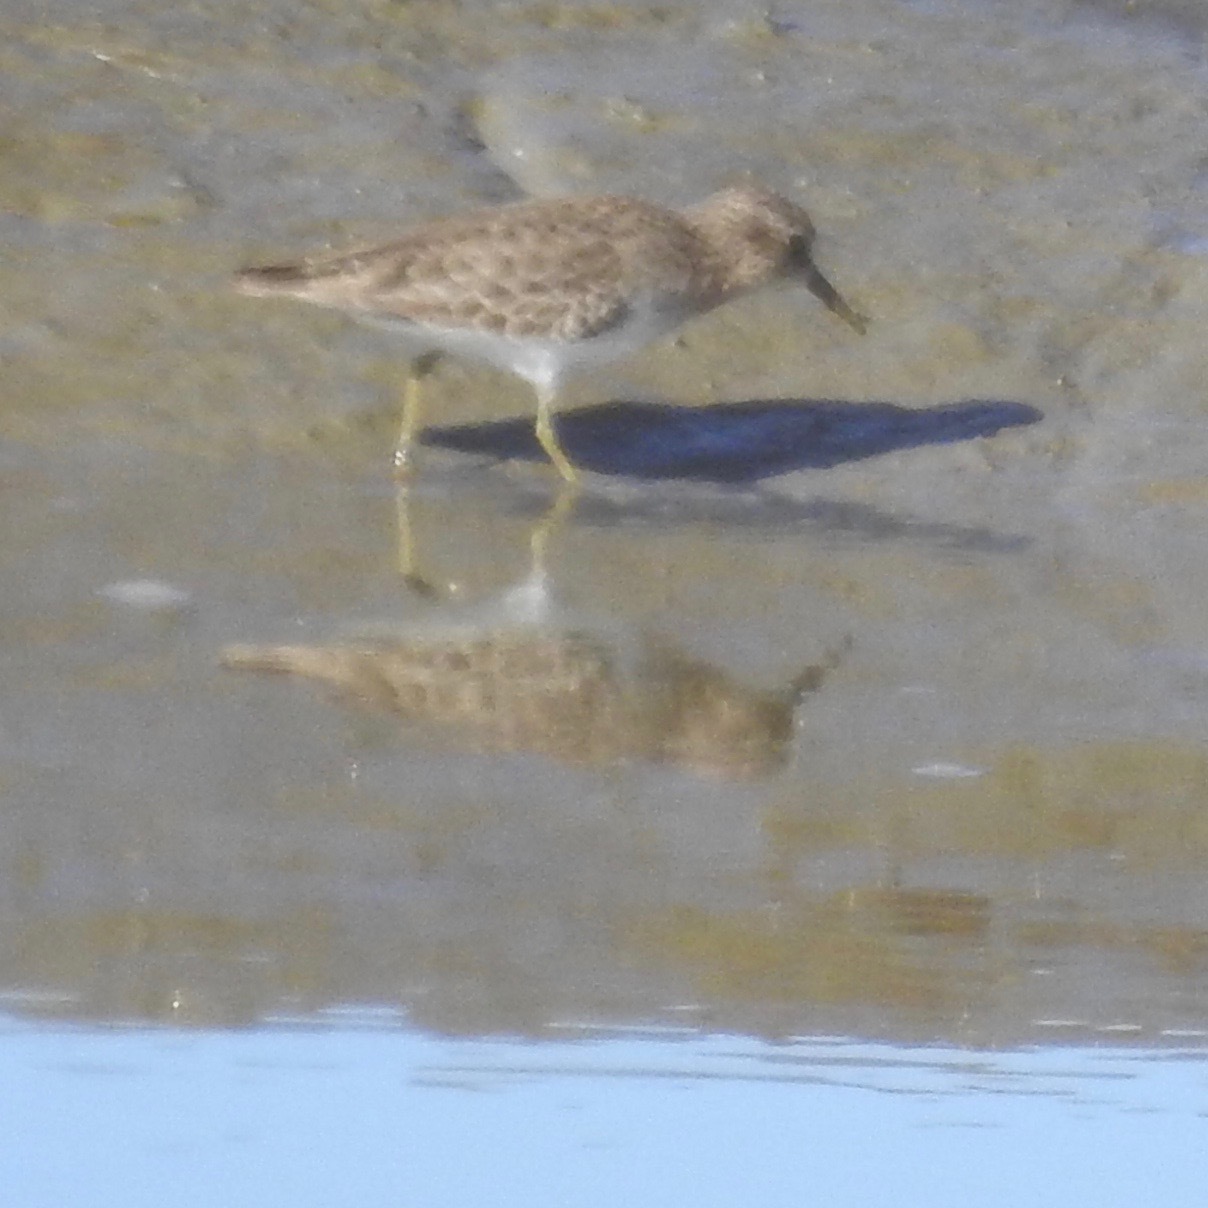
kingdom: Animalia
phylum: Chordata
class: Aves
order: Charadriiformes
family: Scolopacidae
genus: Calidris
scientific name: Calidris minutilla
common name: Least sandpiper
